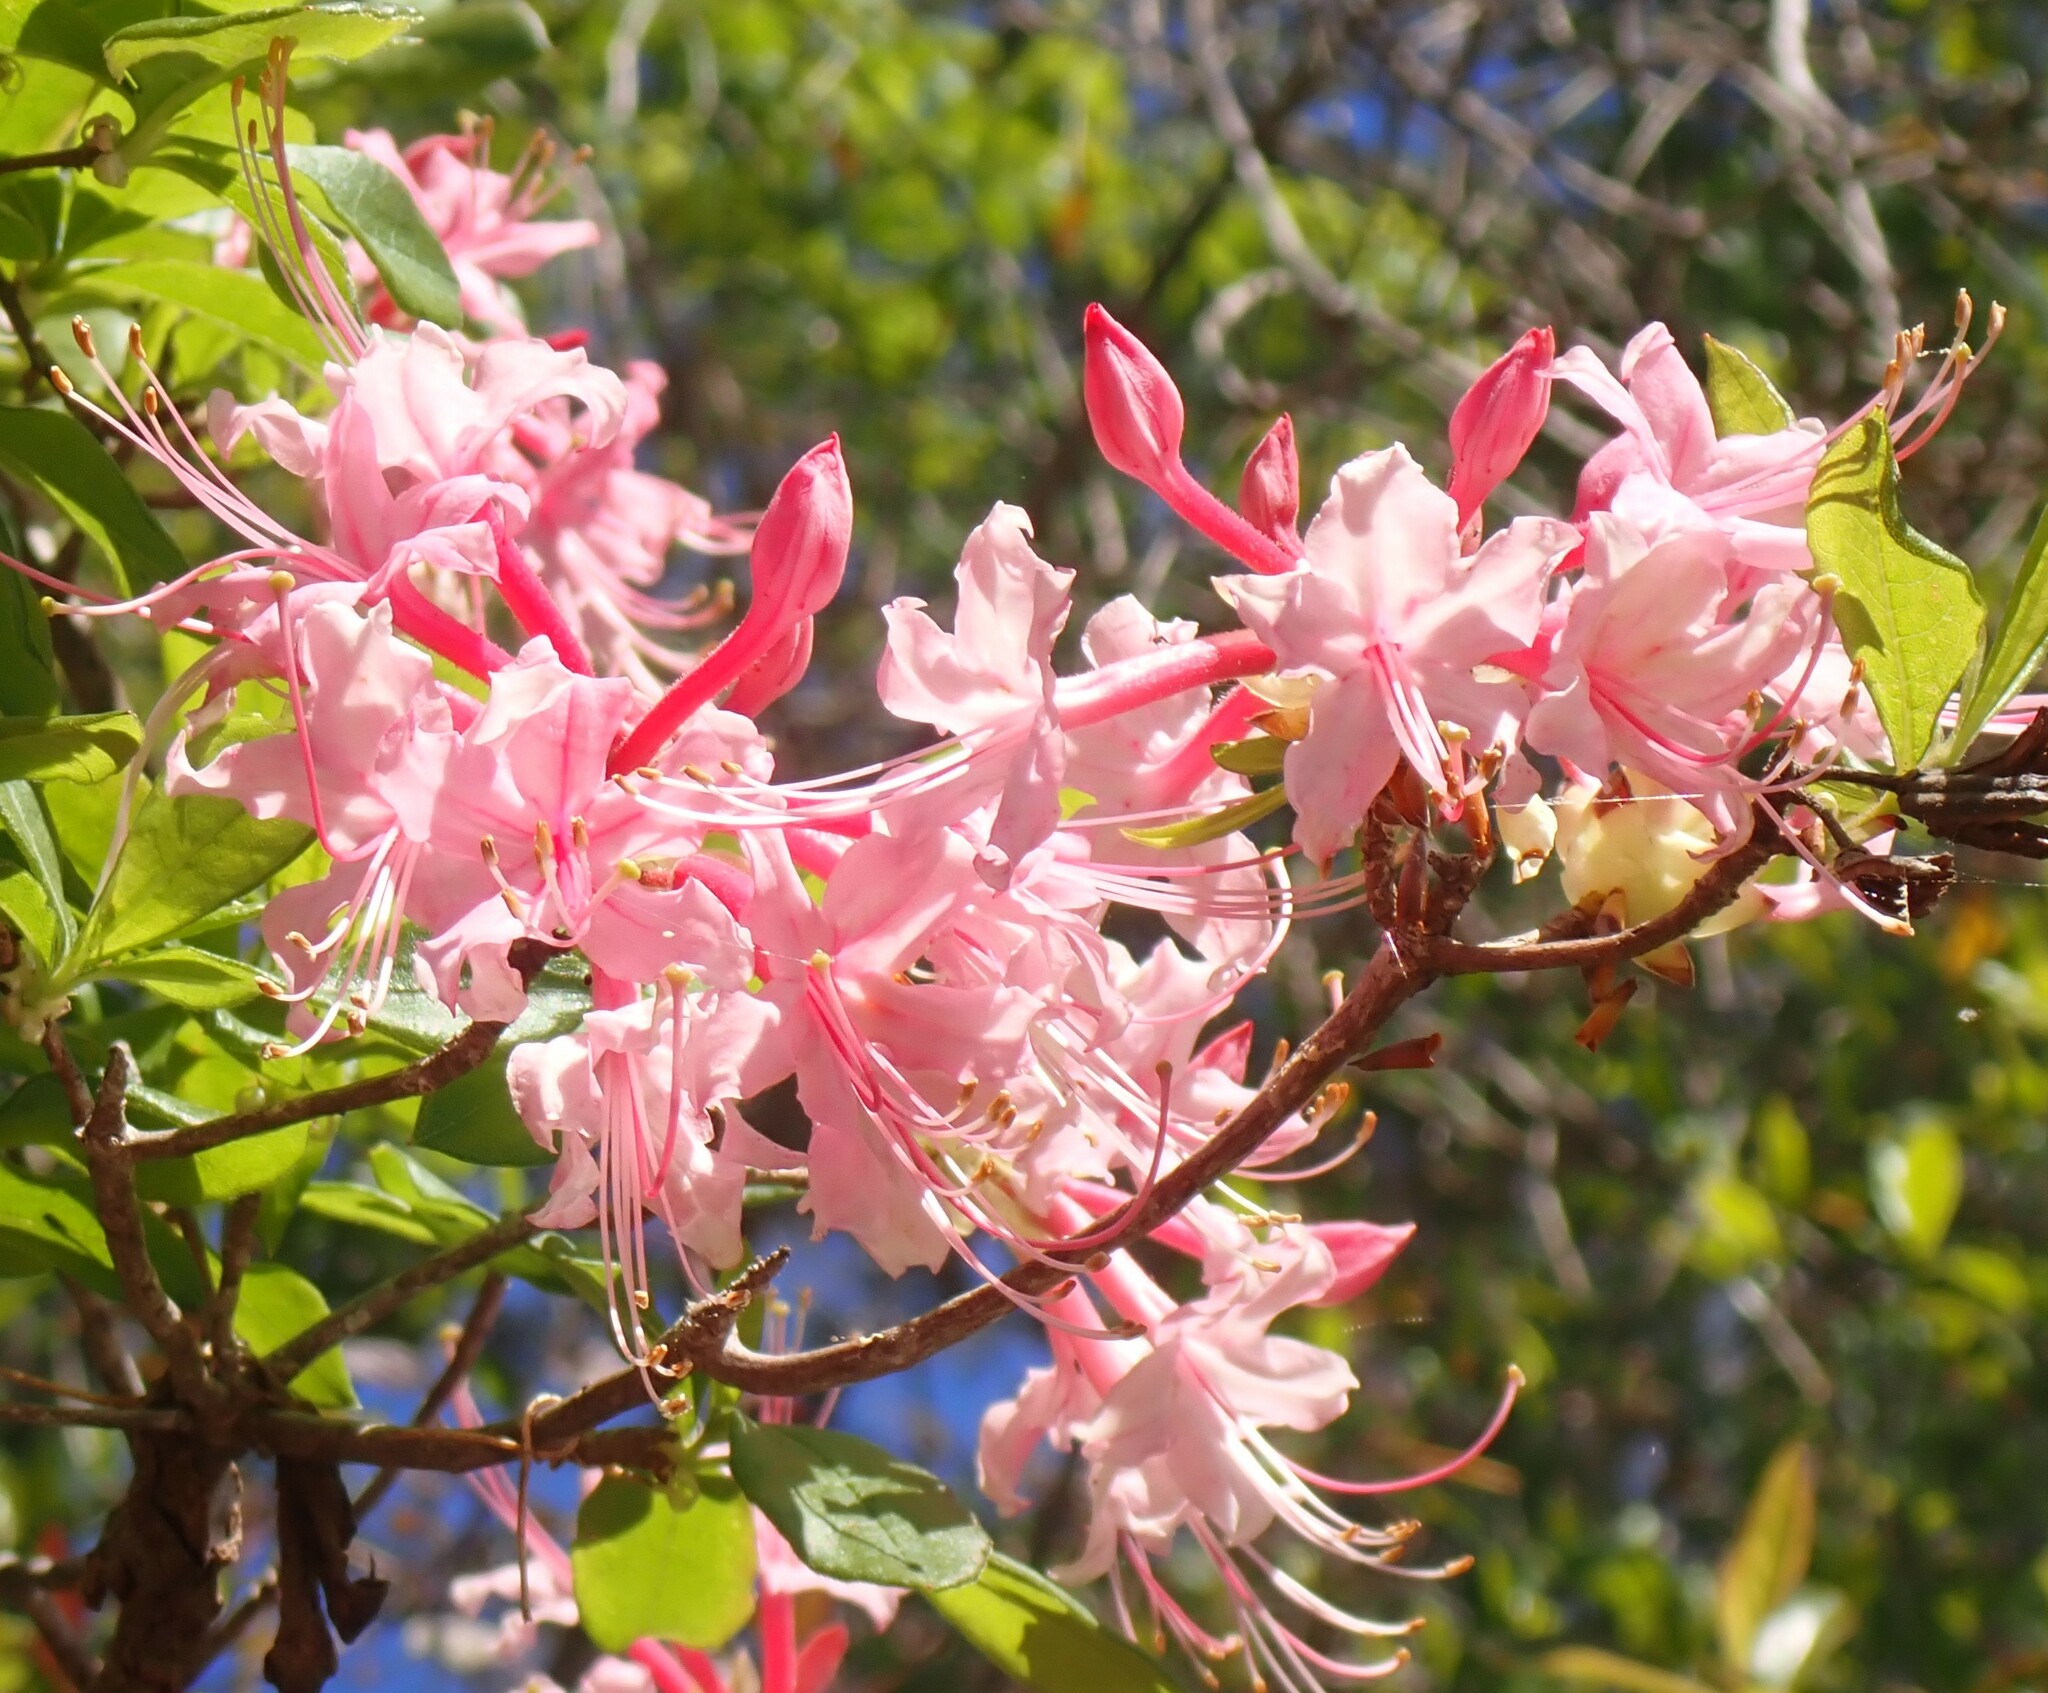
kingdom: Plantae
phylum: Tracheophyta
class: Magnoliopsida
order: Ericales
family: Ericaceae
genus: Rhododendron
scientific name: Rhododendron canescens
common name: Mountain azalea
